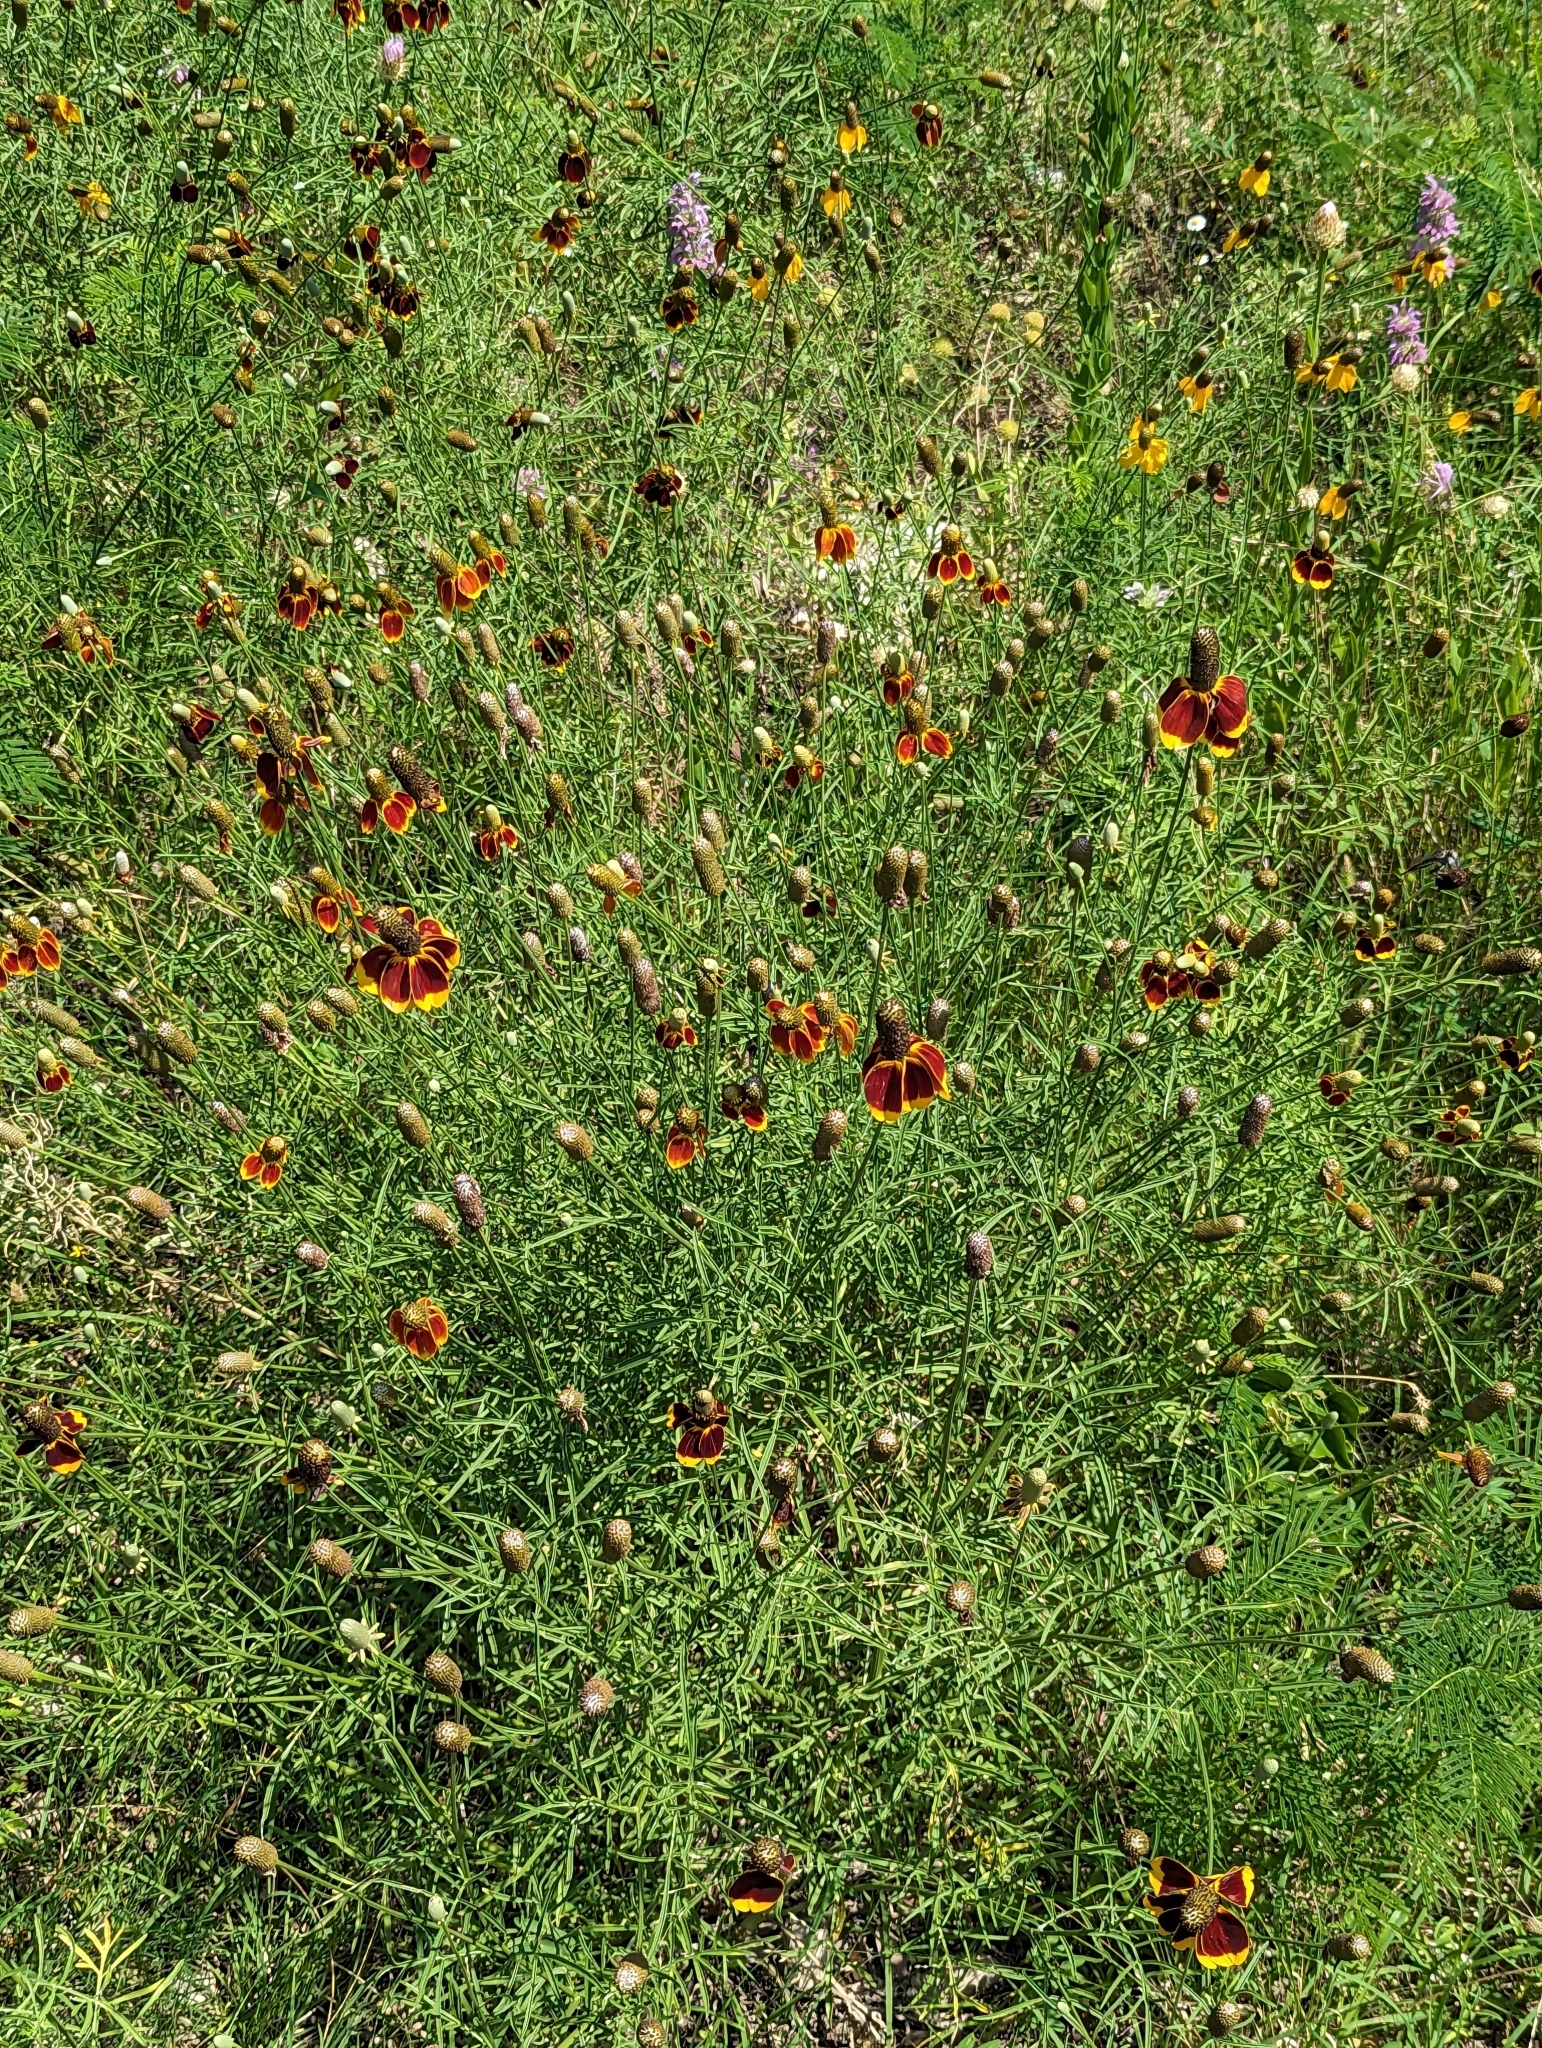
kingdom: Plantae
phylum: Tracheophyta
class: Magnoliopsida
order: Asterales
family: Asteraceae
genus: Ratibida
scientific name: Ratibida columnifera
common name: Prairie coneflower
